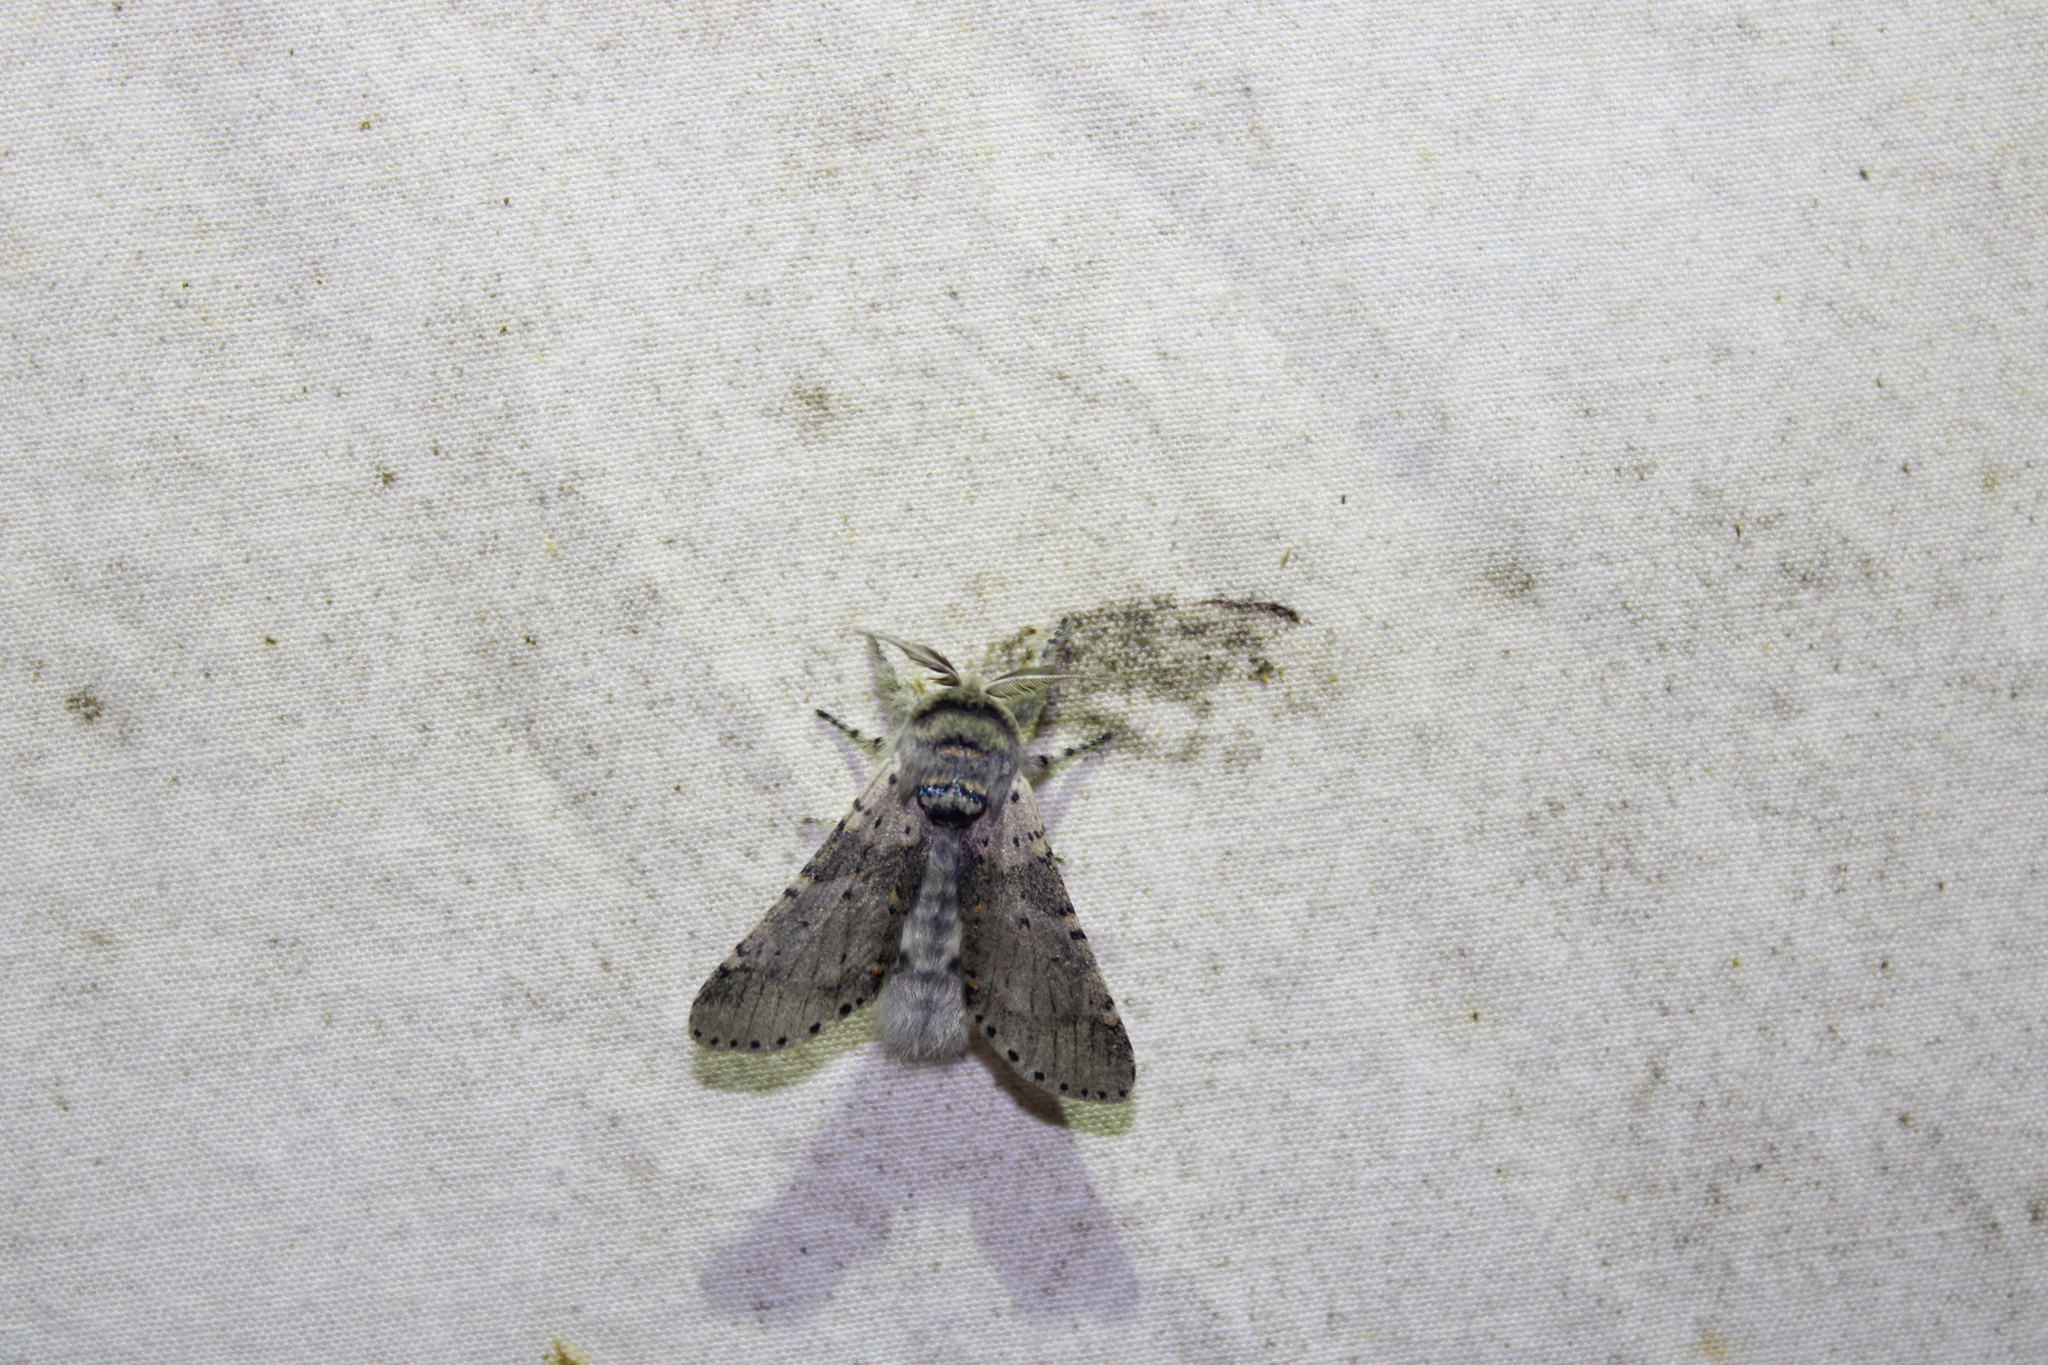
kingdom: Animalia
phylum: Arthropoda
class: Insecta
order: Lepidoptera
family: Notodontidae
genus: Furcula
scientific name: Furcula cinerea
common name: Gray furcula
